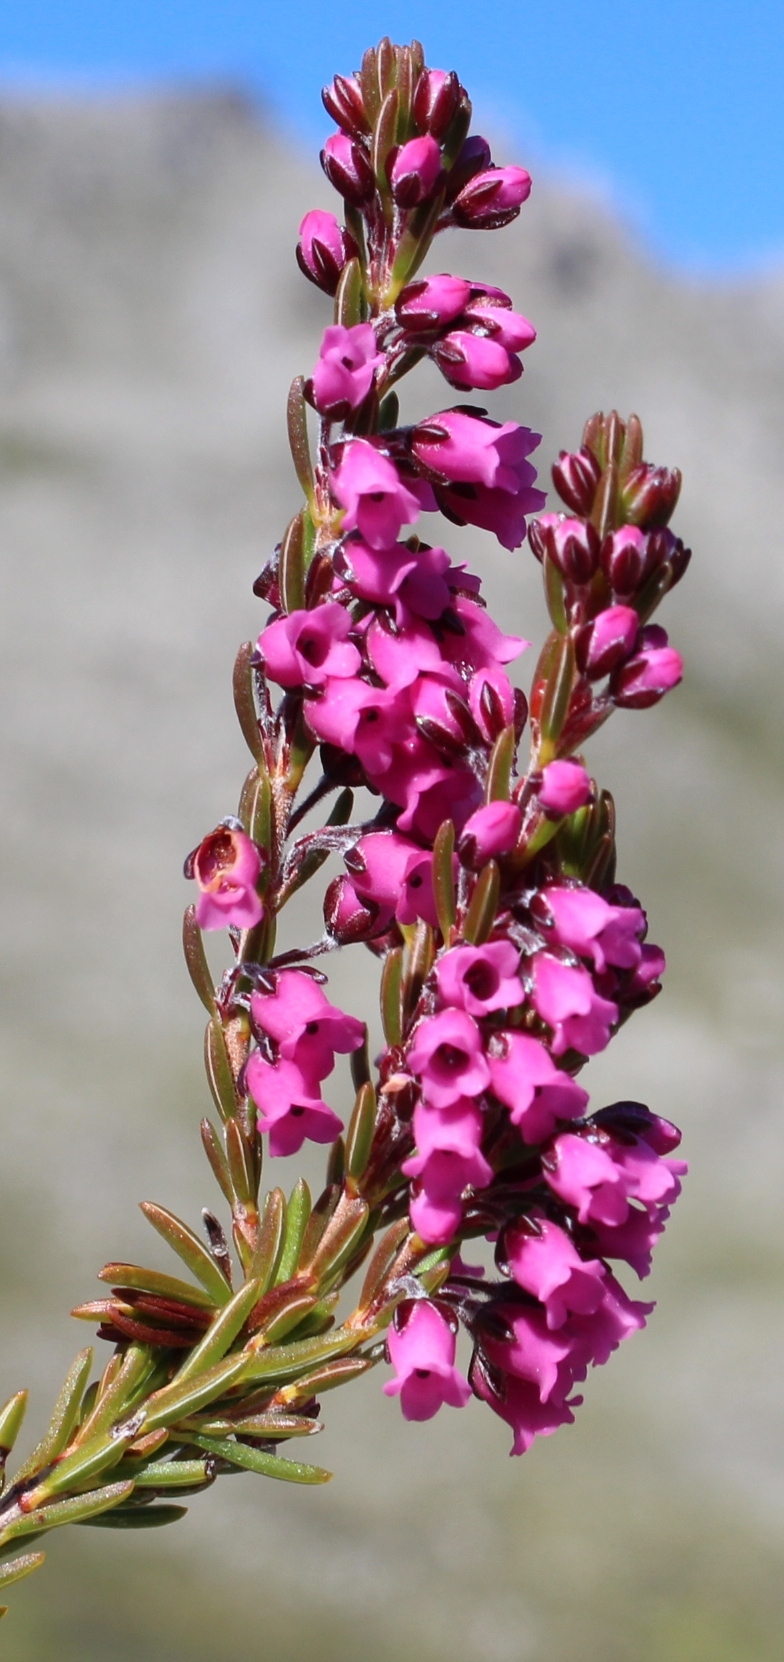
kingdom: Plantae
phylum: Tracheophyta
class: Magnoliopsida
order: Ericales
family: Ericaceae
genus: Erica
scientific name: Erica pulchella
